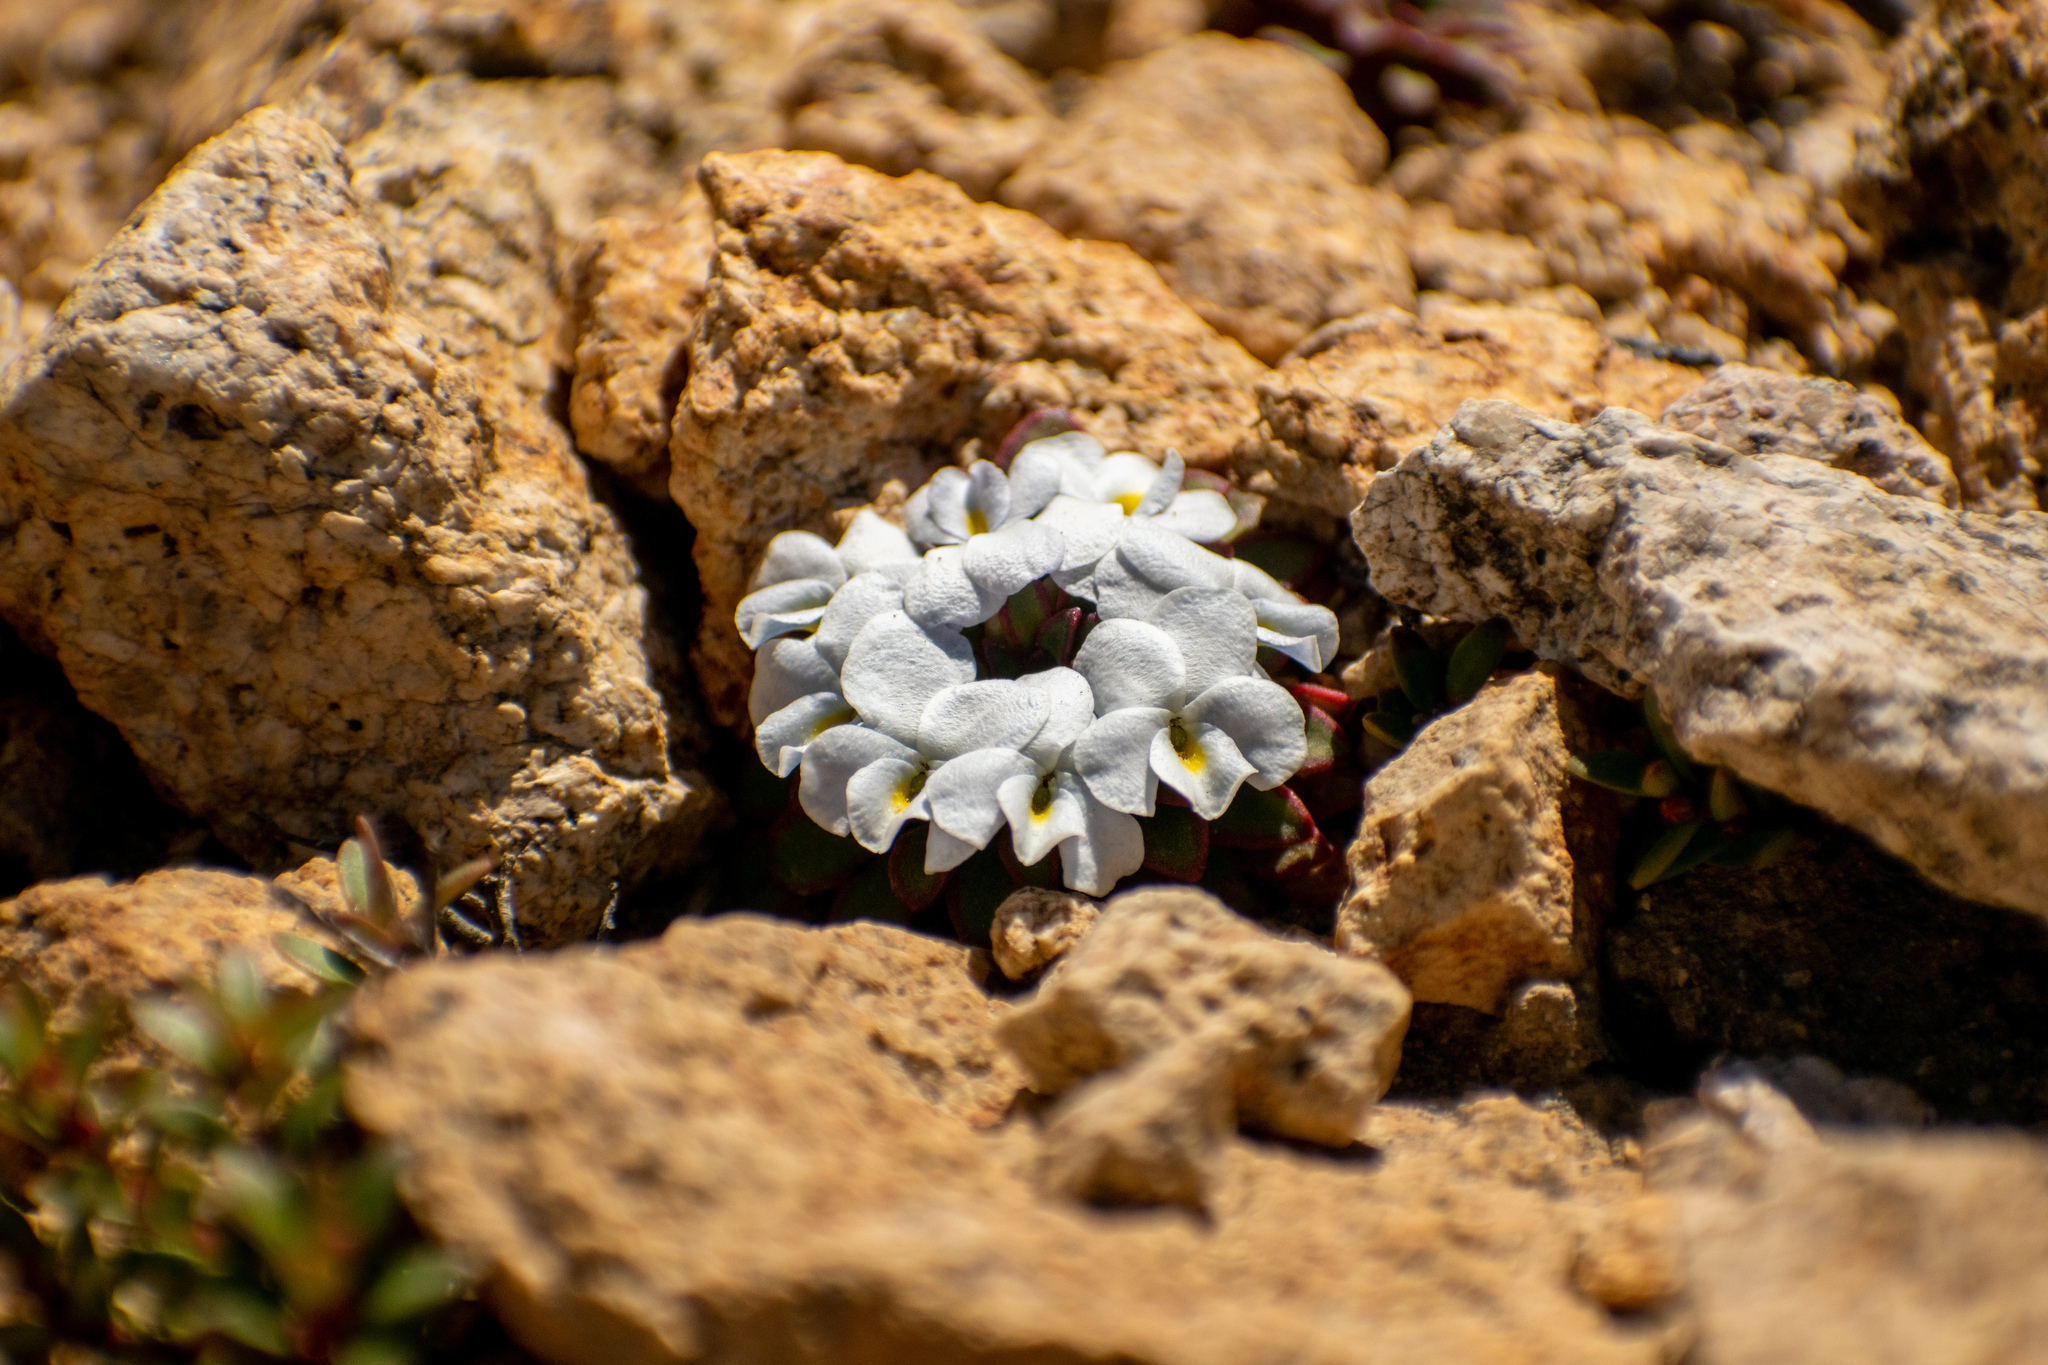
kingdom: Plantae
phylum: Tracheophyta
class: Magnoliopsida
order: Malpighiales
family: Violaceae
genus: Viola
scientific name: Viola sacculus
